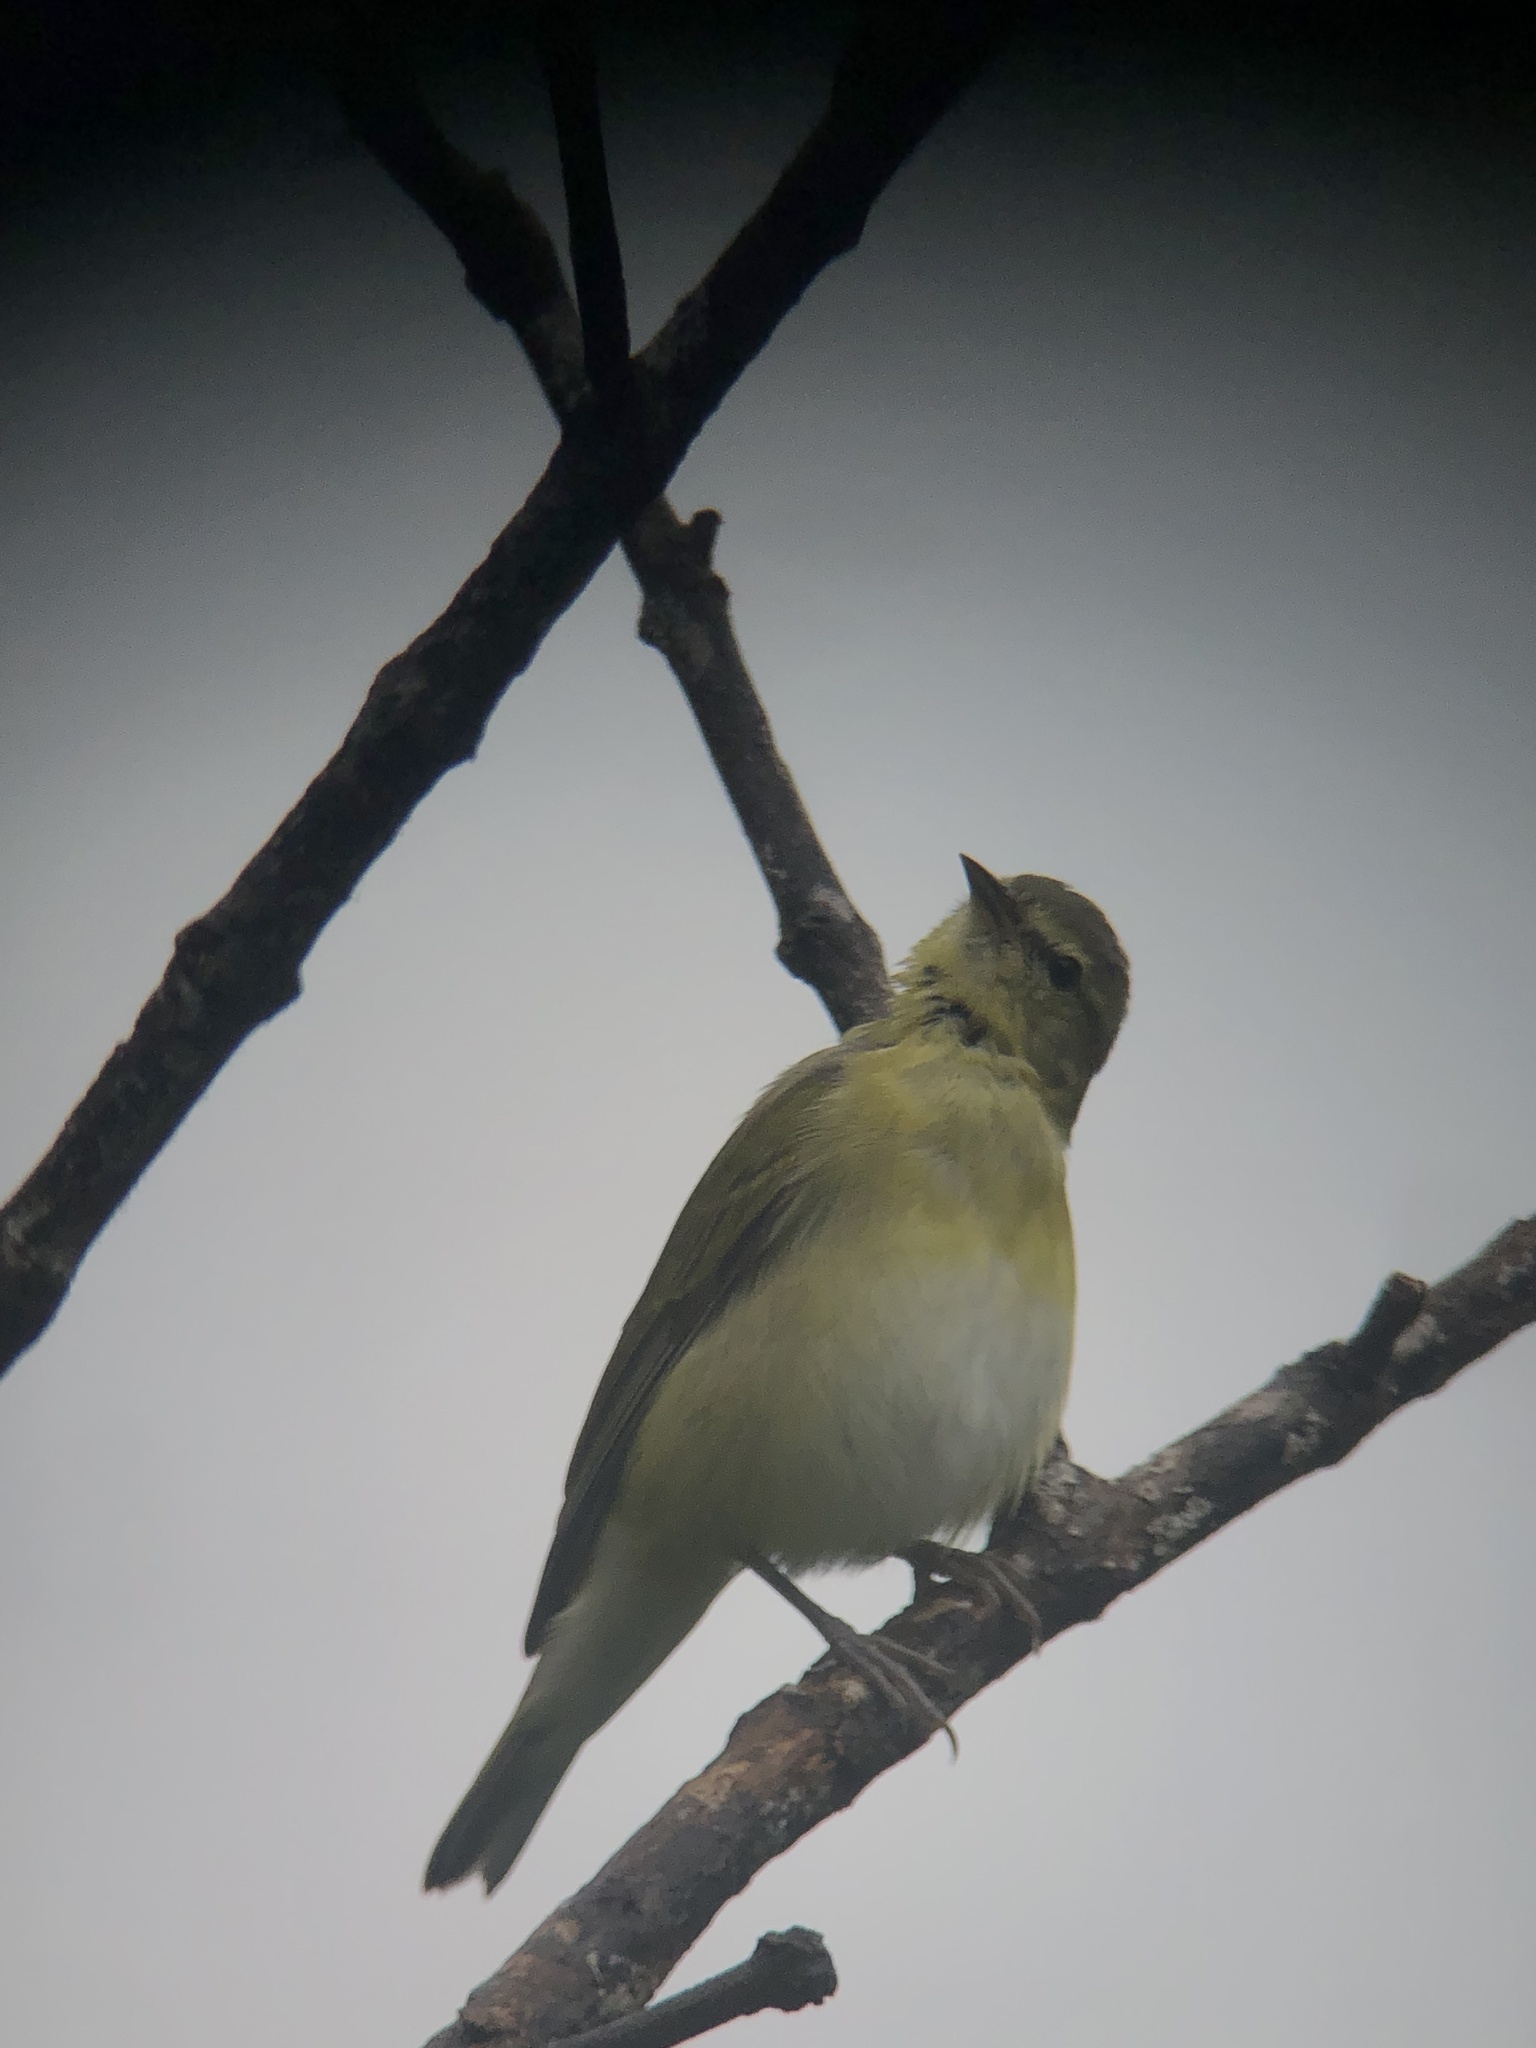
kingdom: Animalia
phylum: Chordata
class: Aves
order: Passeriformes
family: Parulidae
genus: Leiothlypis
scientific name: Leiothlypis peregrina
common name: Tennessee warbler
